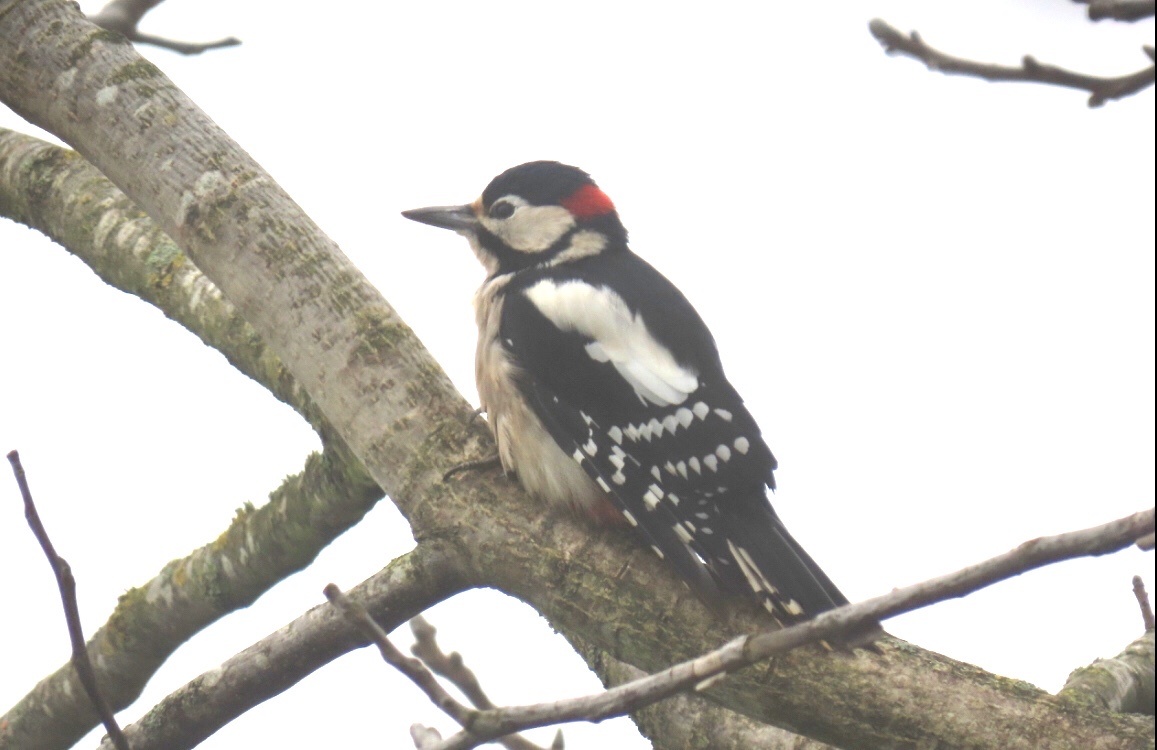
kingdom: Animalia
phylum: Chordata
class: Aves
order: Piciformes
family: Picidae
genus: Dendrocopos
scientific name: Dendrocopos major
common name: Great spotted woodpecker
